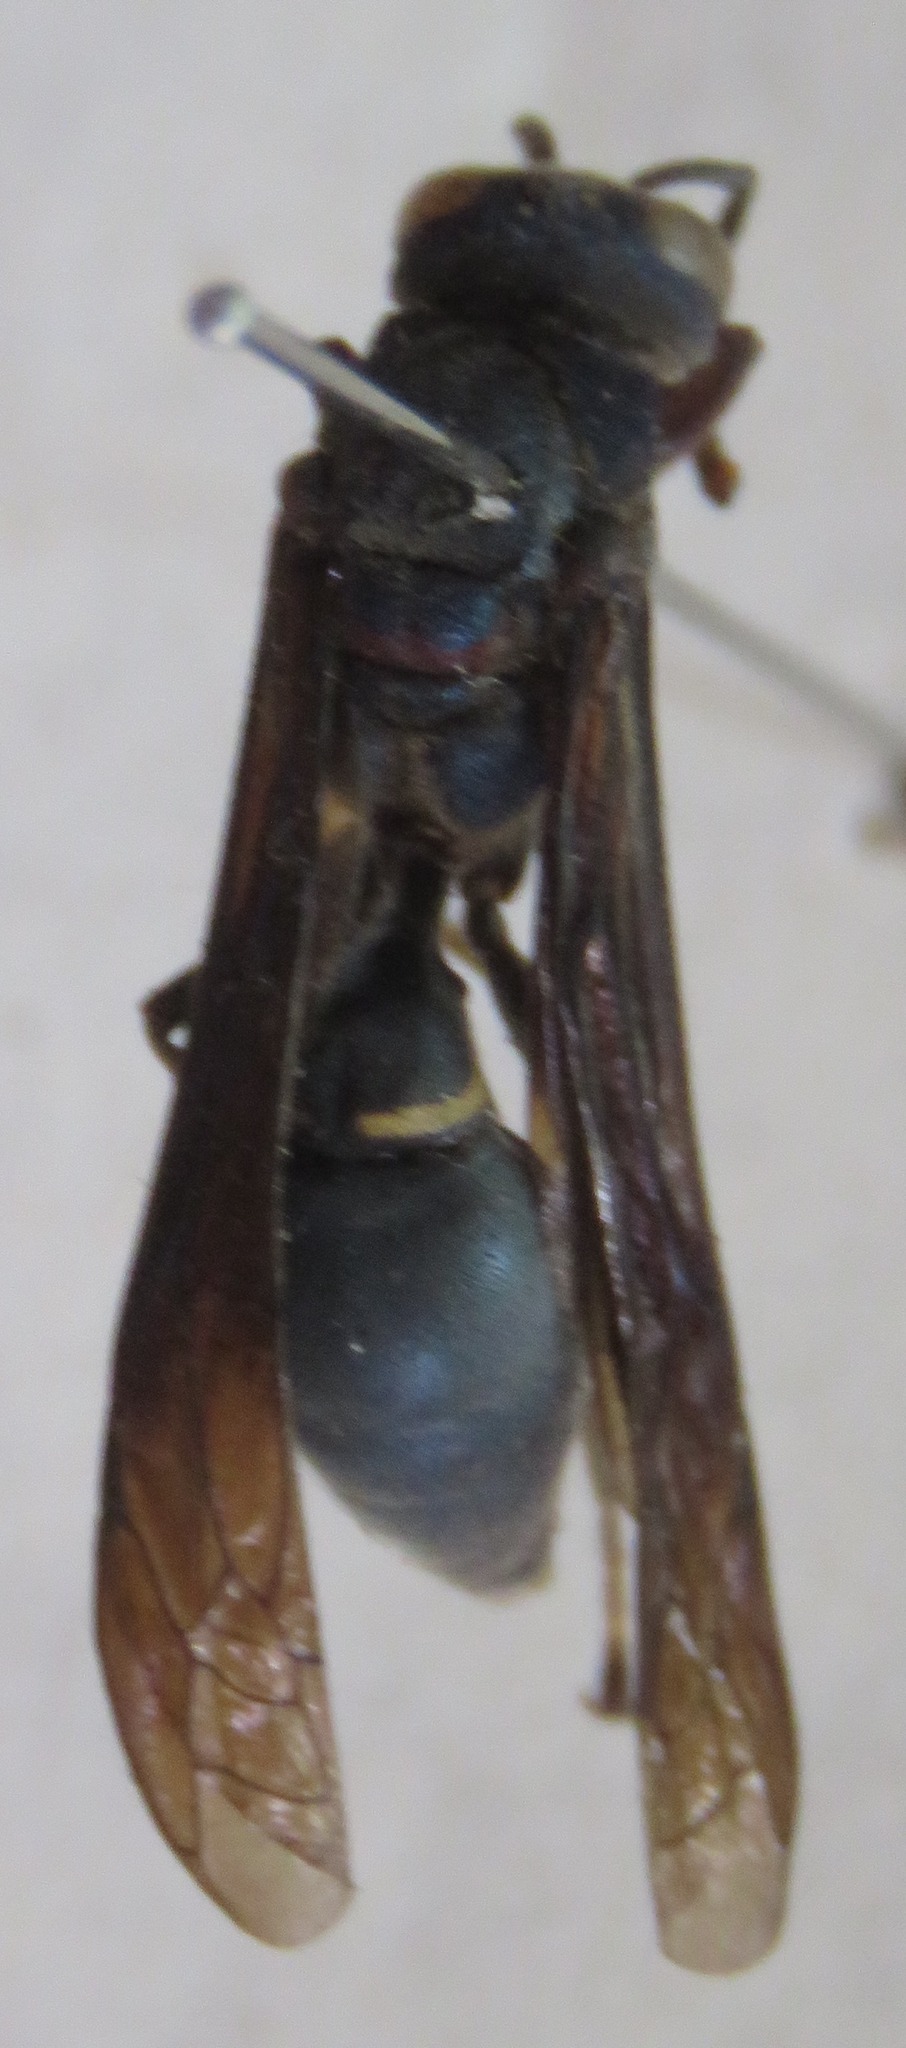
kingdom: Animalia
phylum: Arthropoda
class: Insecta
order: Hymenoptera
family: Eumenidae
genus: Montezumia
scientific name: Montezumia azurescens
